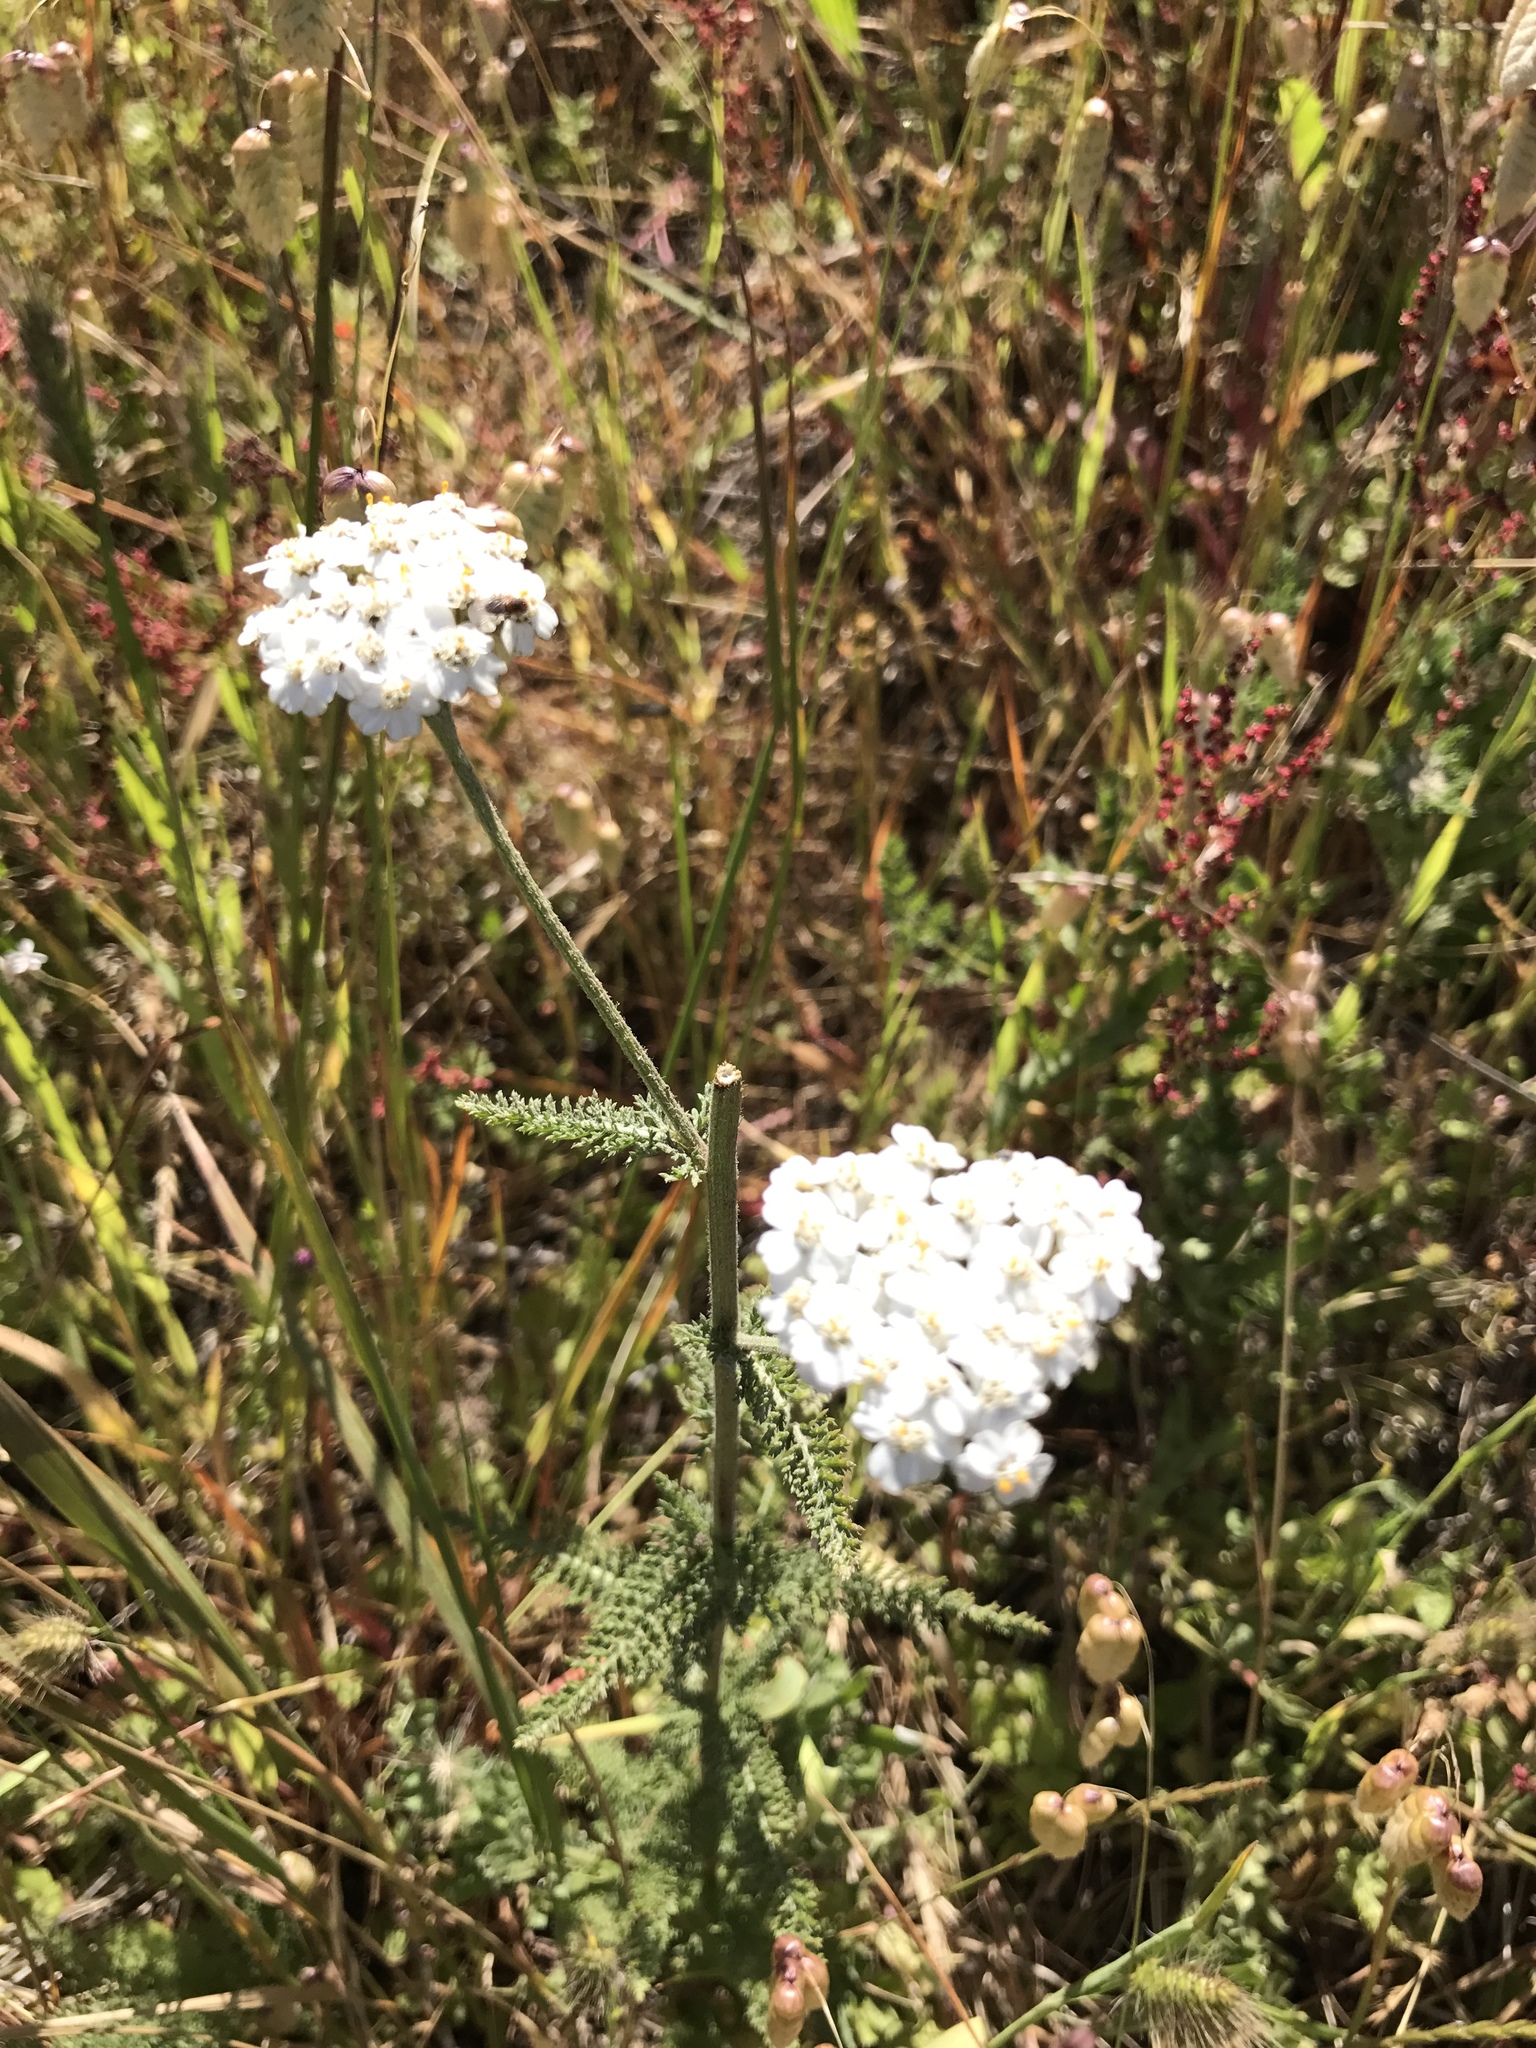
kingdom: Plantae
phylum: Tracheophyta
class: Magnoliopsida
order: Asterales
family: Asteraceae
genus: Achillea
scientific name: Achillea millefolium
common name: Yarrow
